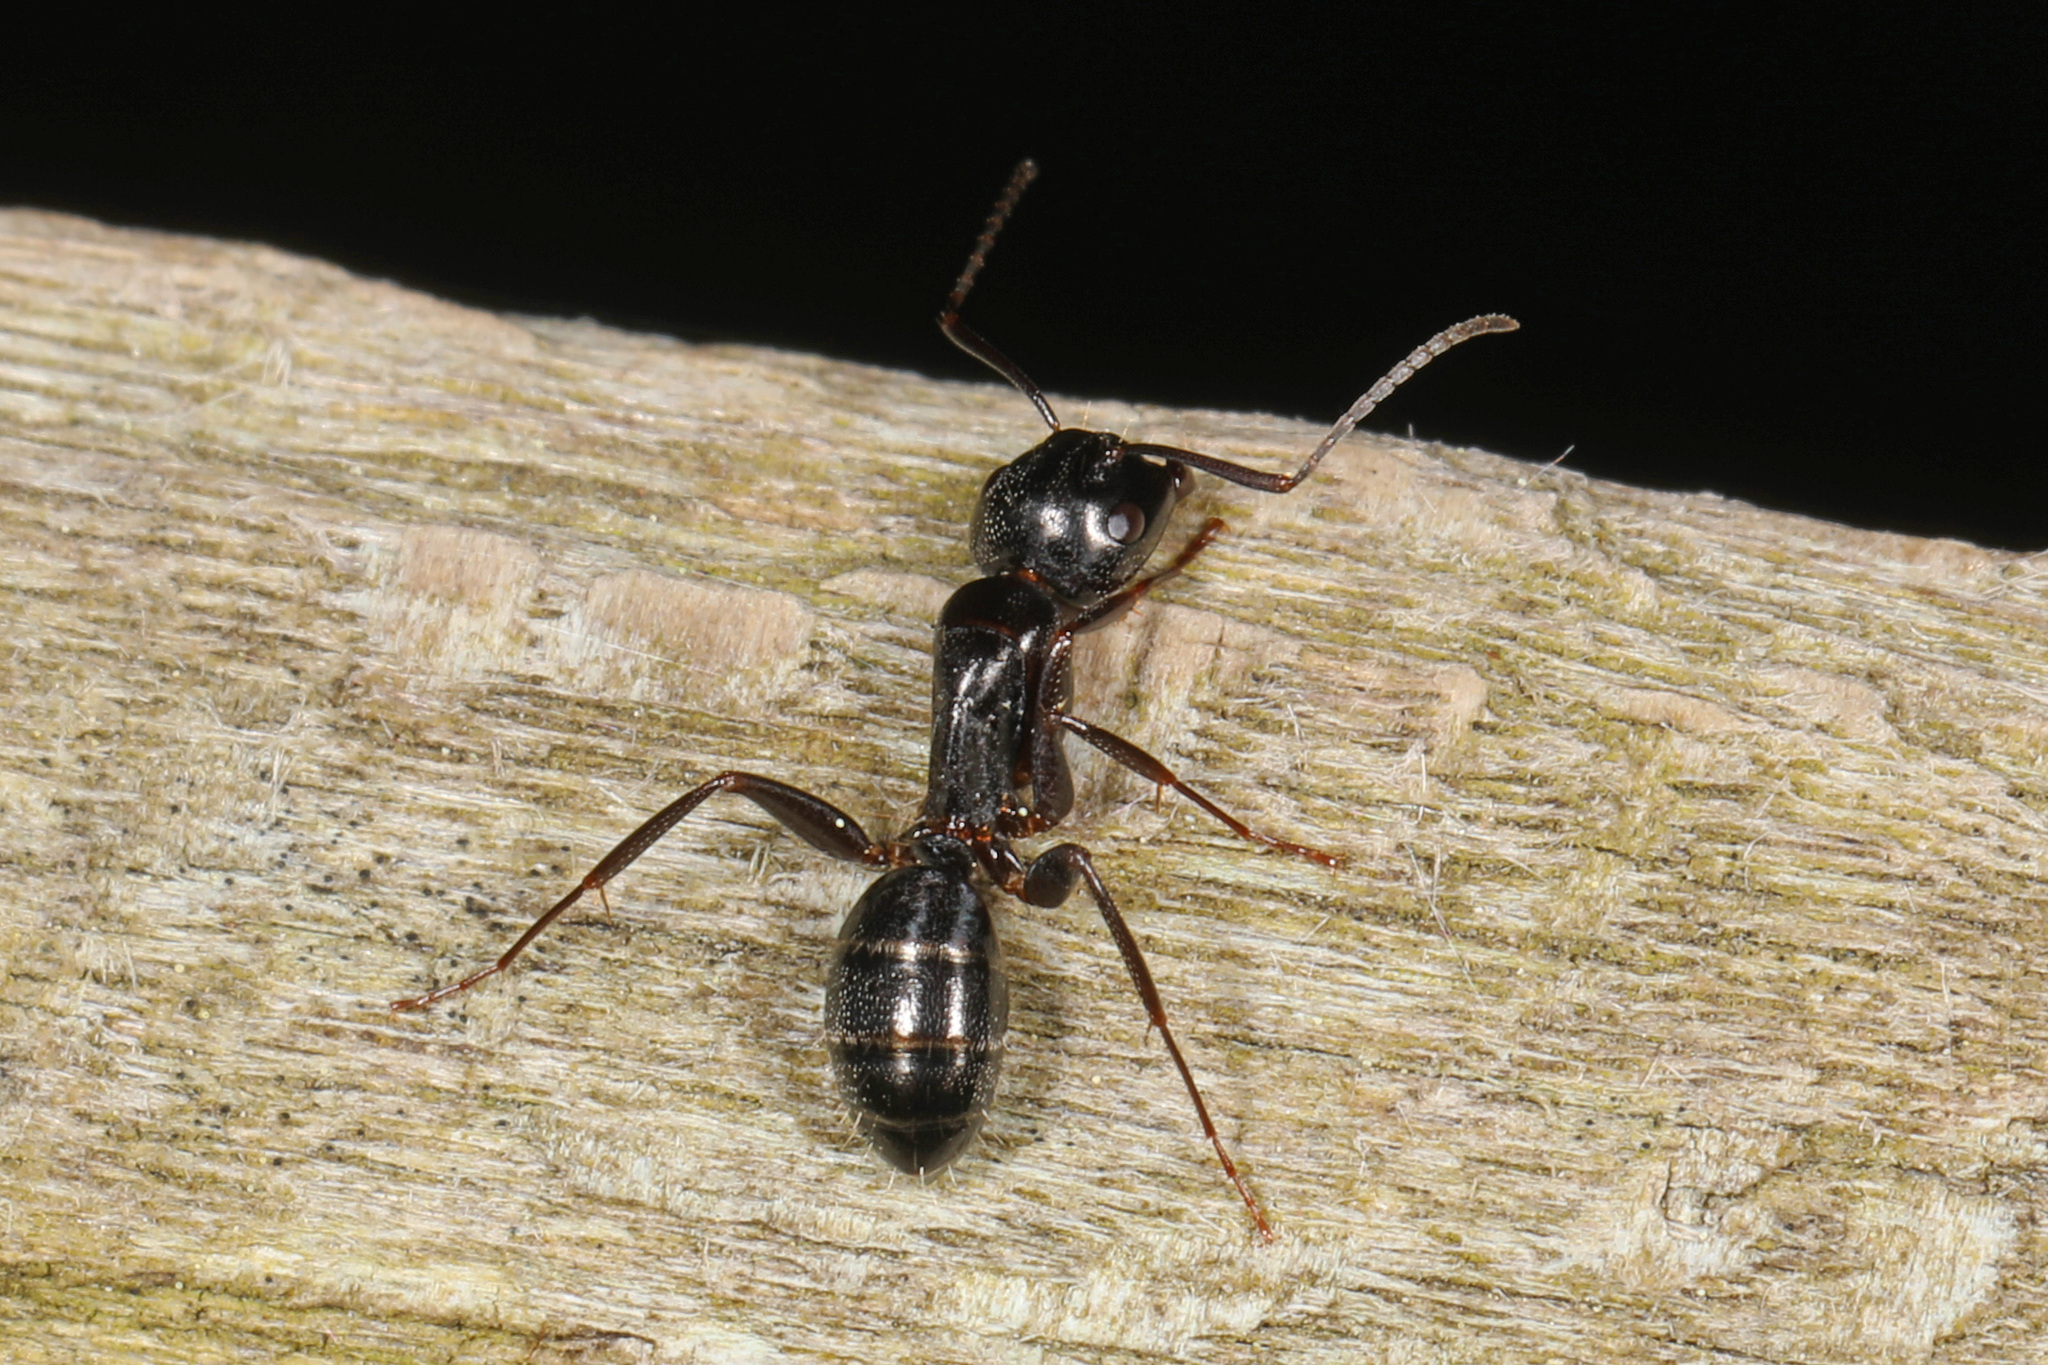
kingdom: Animalia
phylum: Arthropoda
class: Insecta
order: Hymenoptera
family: Formicidae
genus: Camponotus
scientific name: Camponotus nearcticus
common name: Smaller carpenter ant
